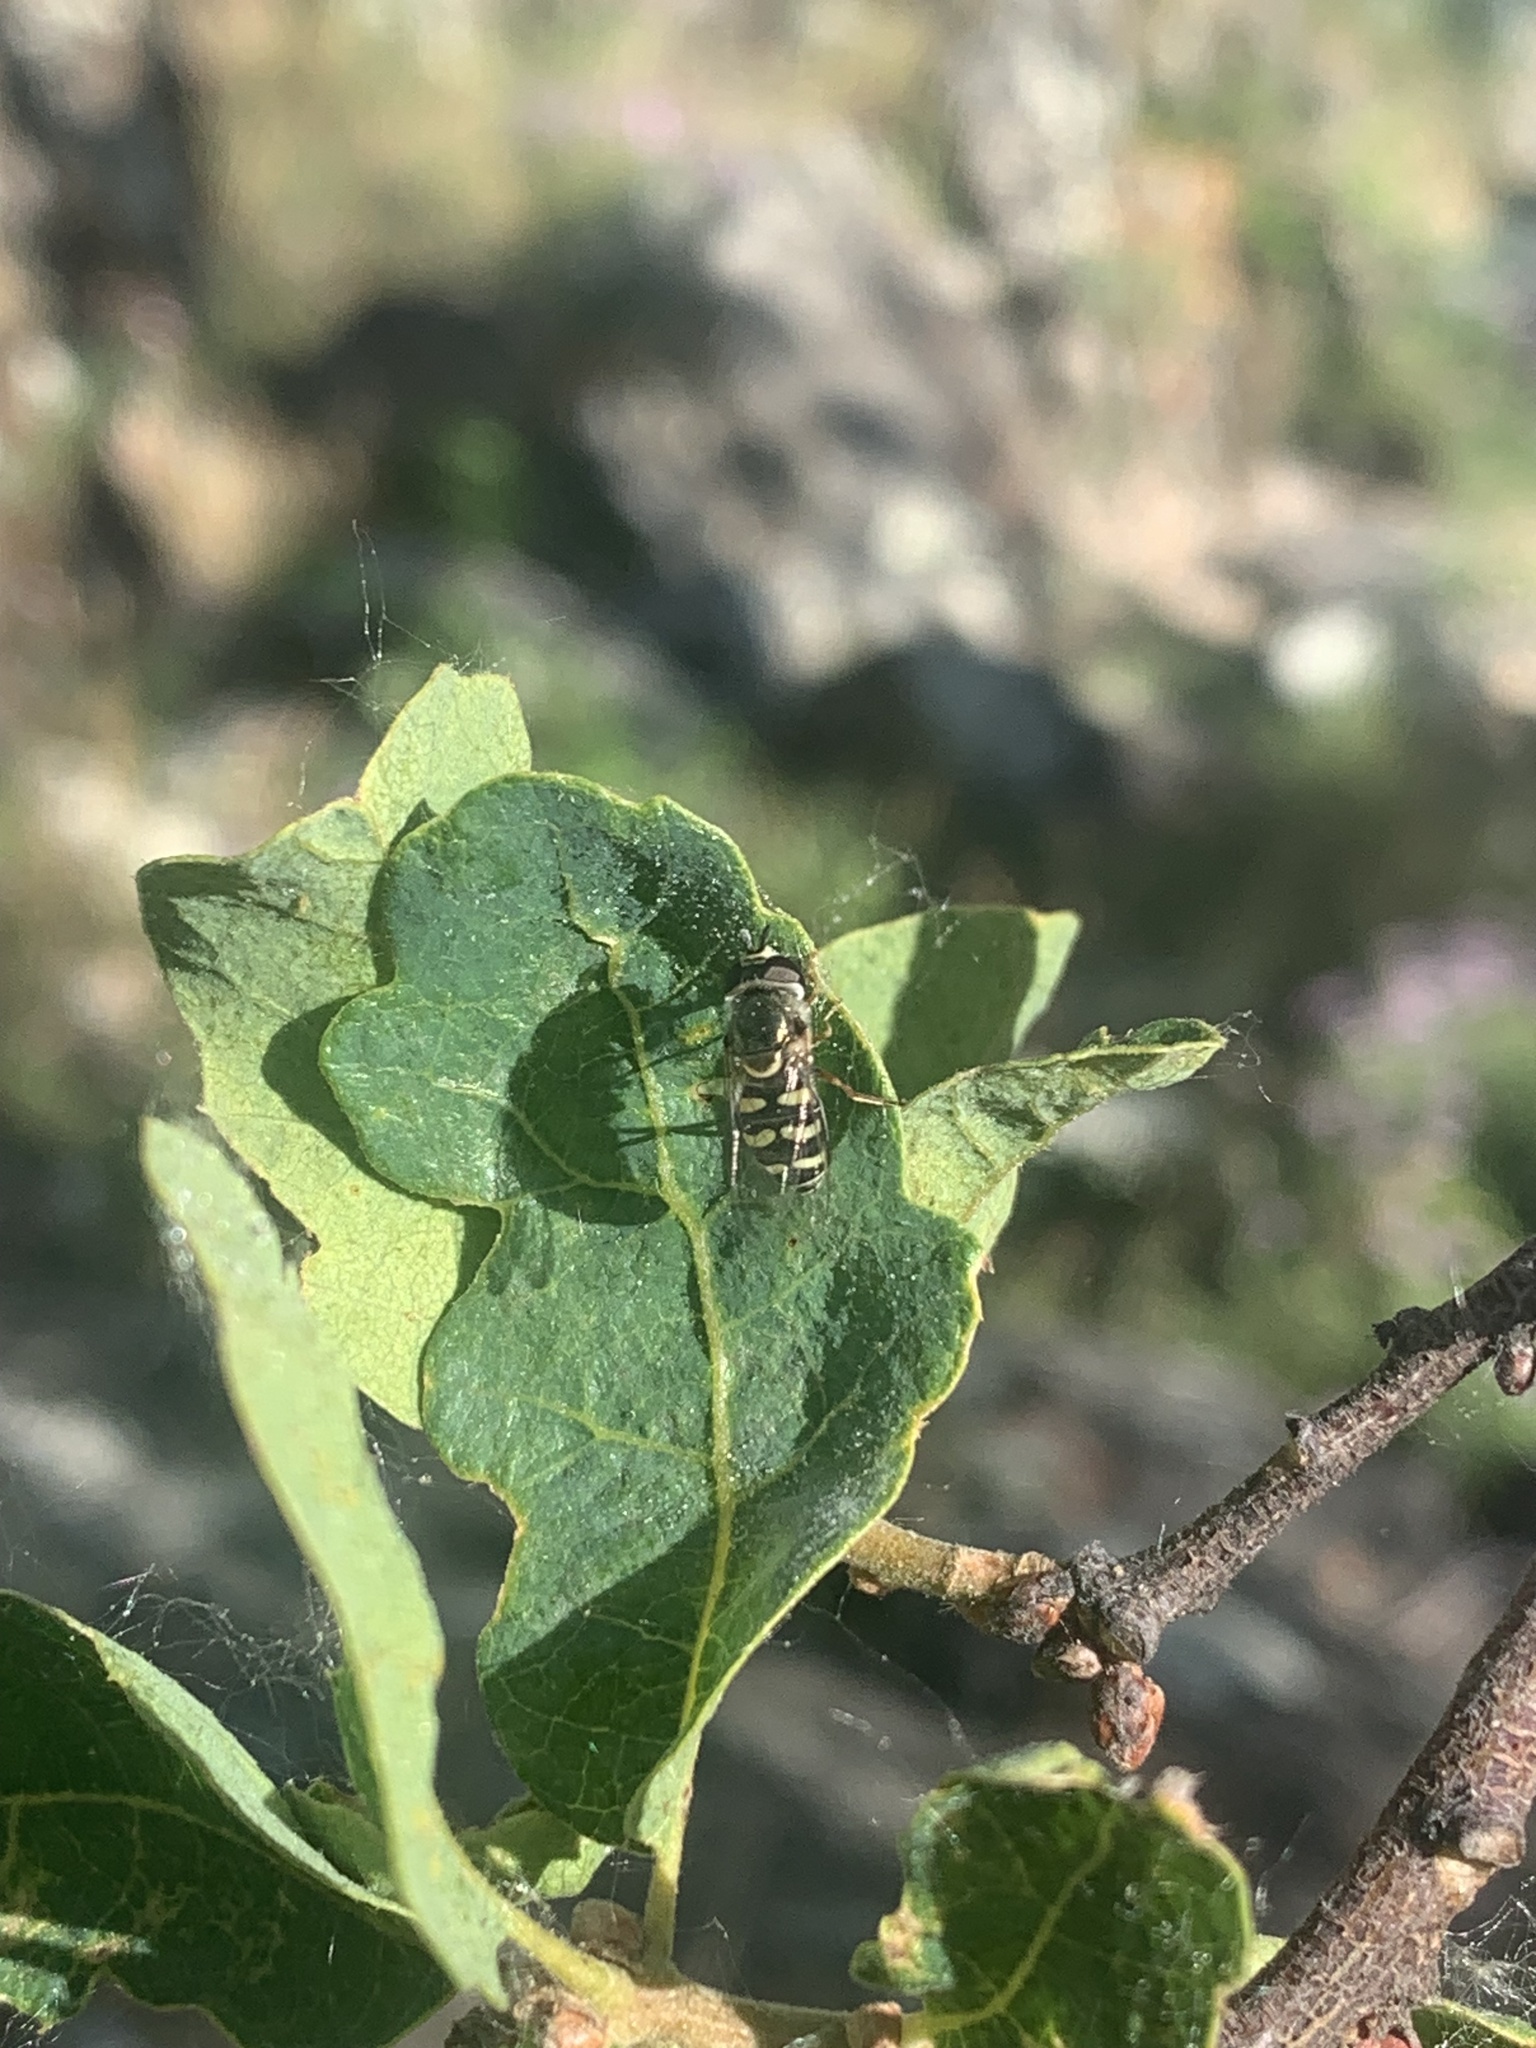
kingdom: Animalia
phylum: Arthropoda
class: Insecta
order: Diptera
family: Syrphidae
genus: Eupeodes
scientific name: Eupeodes volucris
